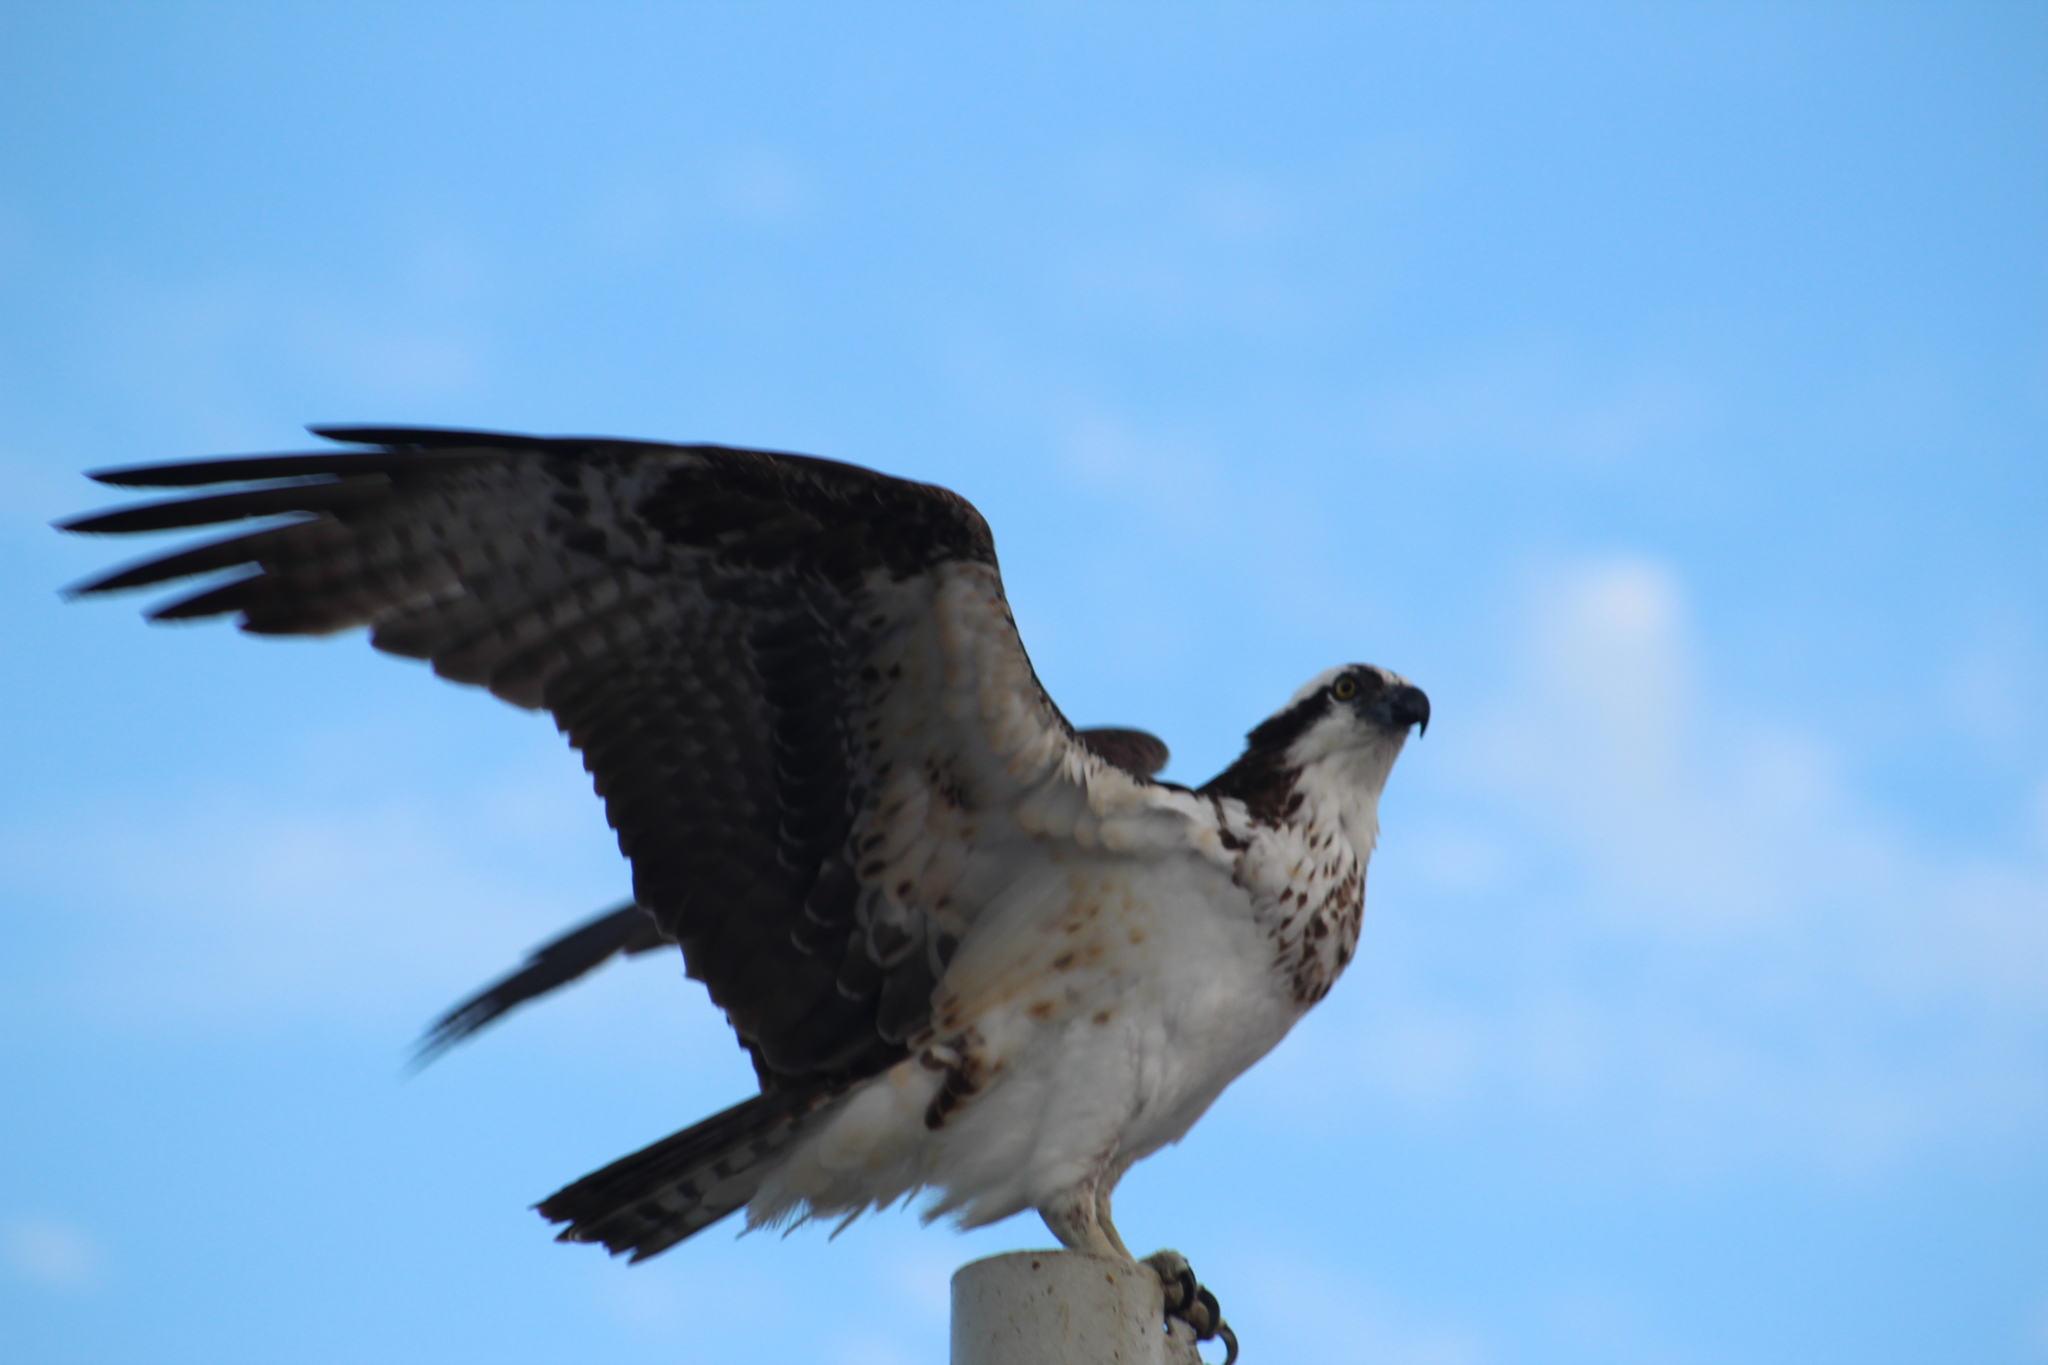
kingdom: Animalia
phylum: Chordata
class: Aves
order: Accipitriformes
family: Pandionidae
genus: Pandion
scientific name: Pandion haliaetus
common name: Osprey
